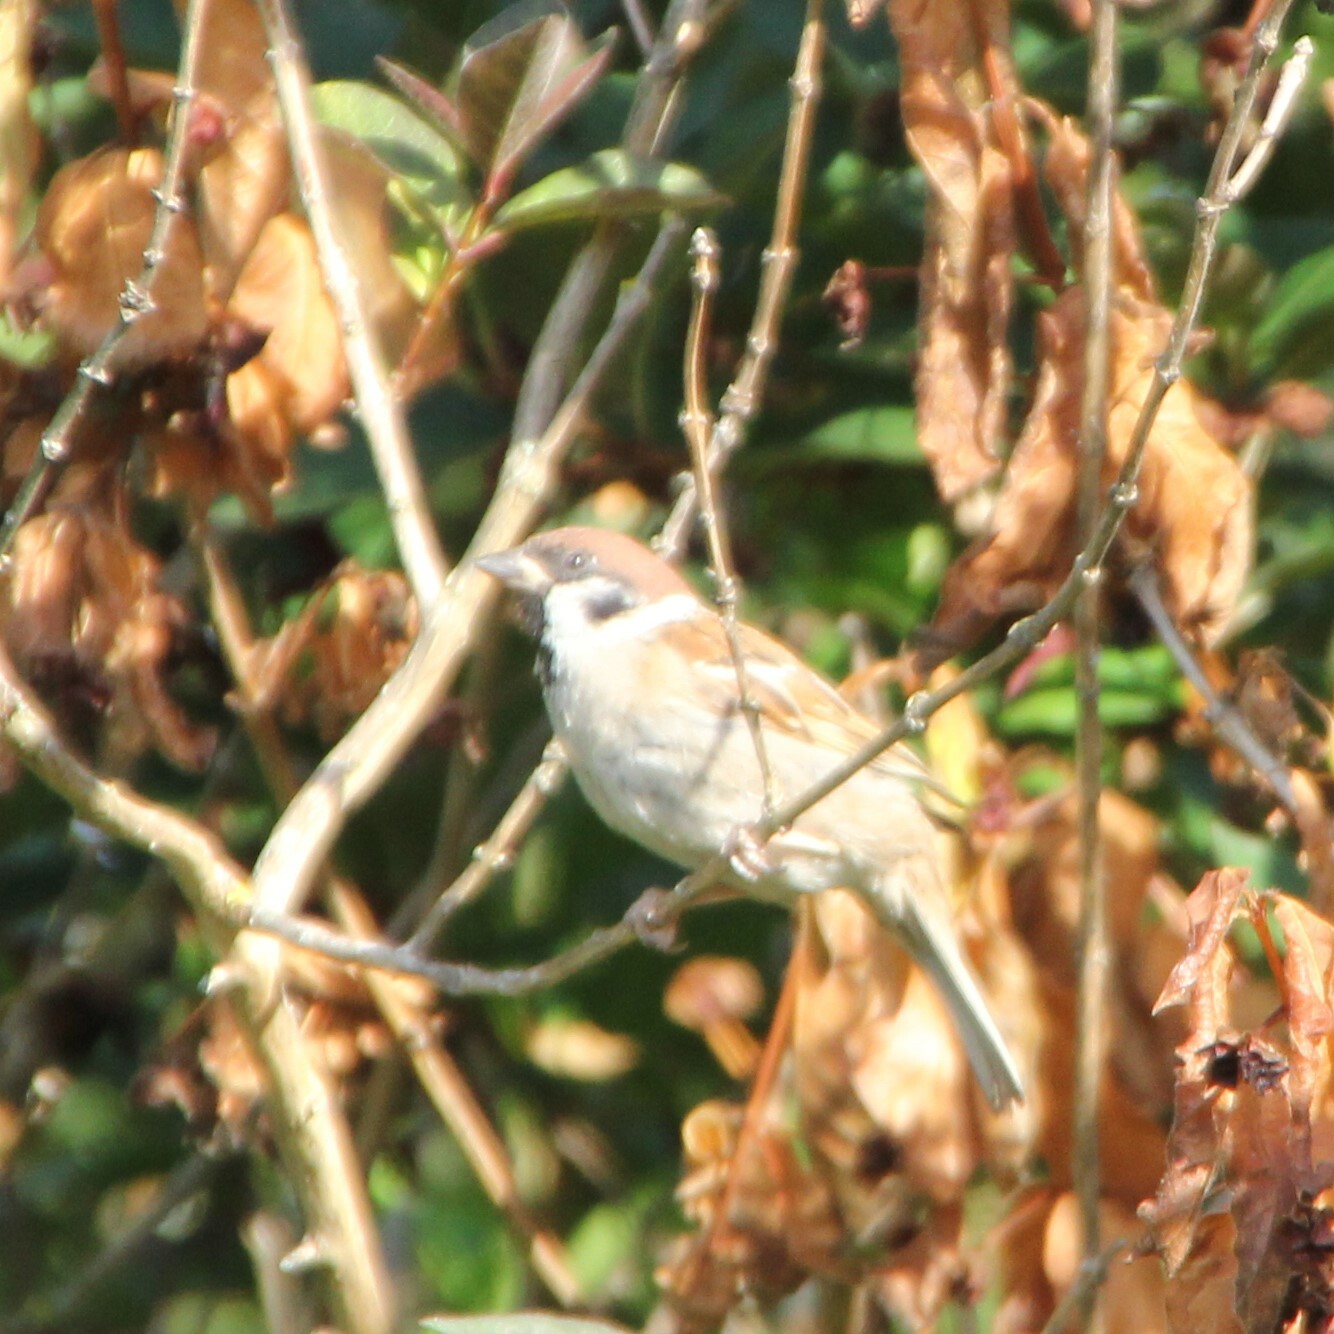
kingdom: Animalia
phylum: Chordata
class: Aves
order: Passeriformes
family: Passeridae
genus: Passer
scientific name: Passer montanus
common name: Eurasian tree sparrow
